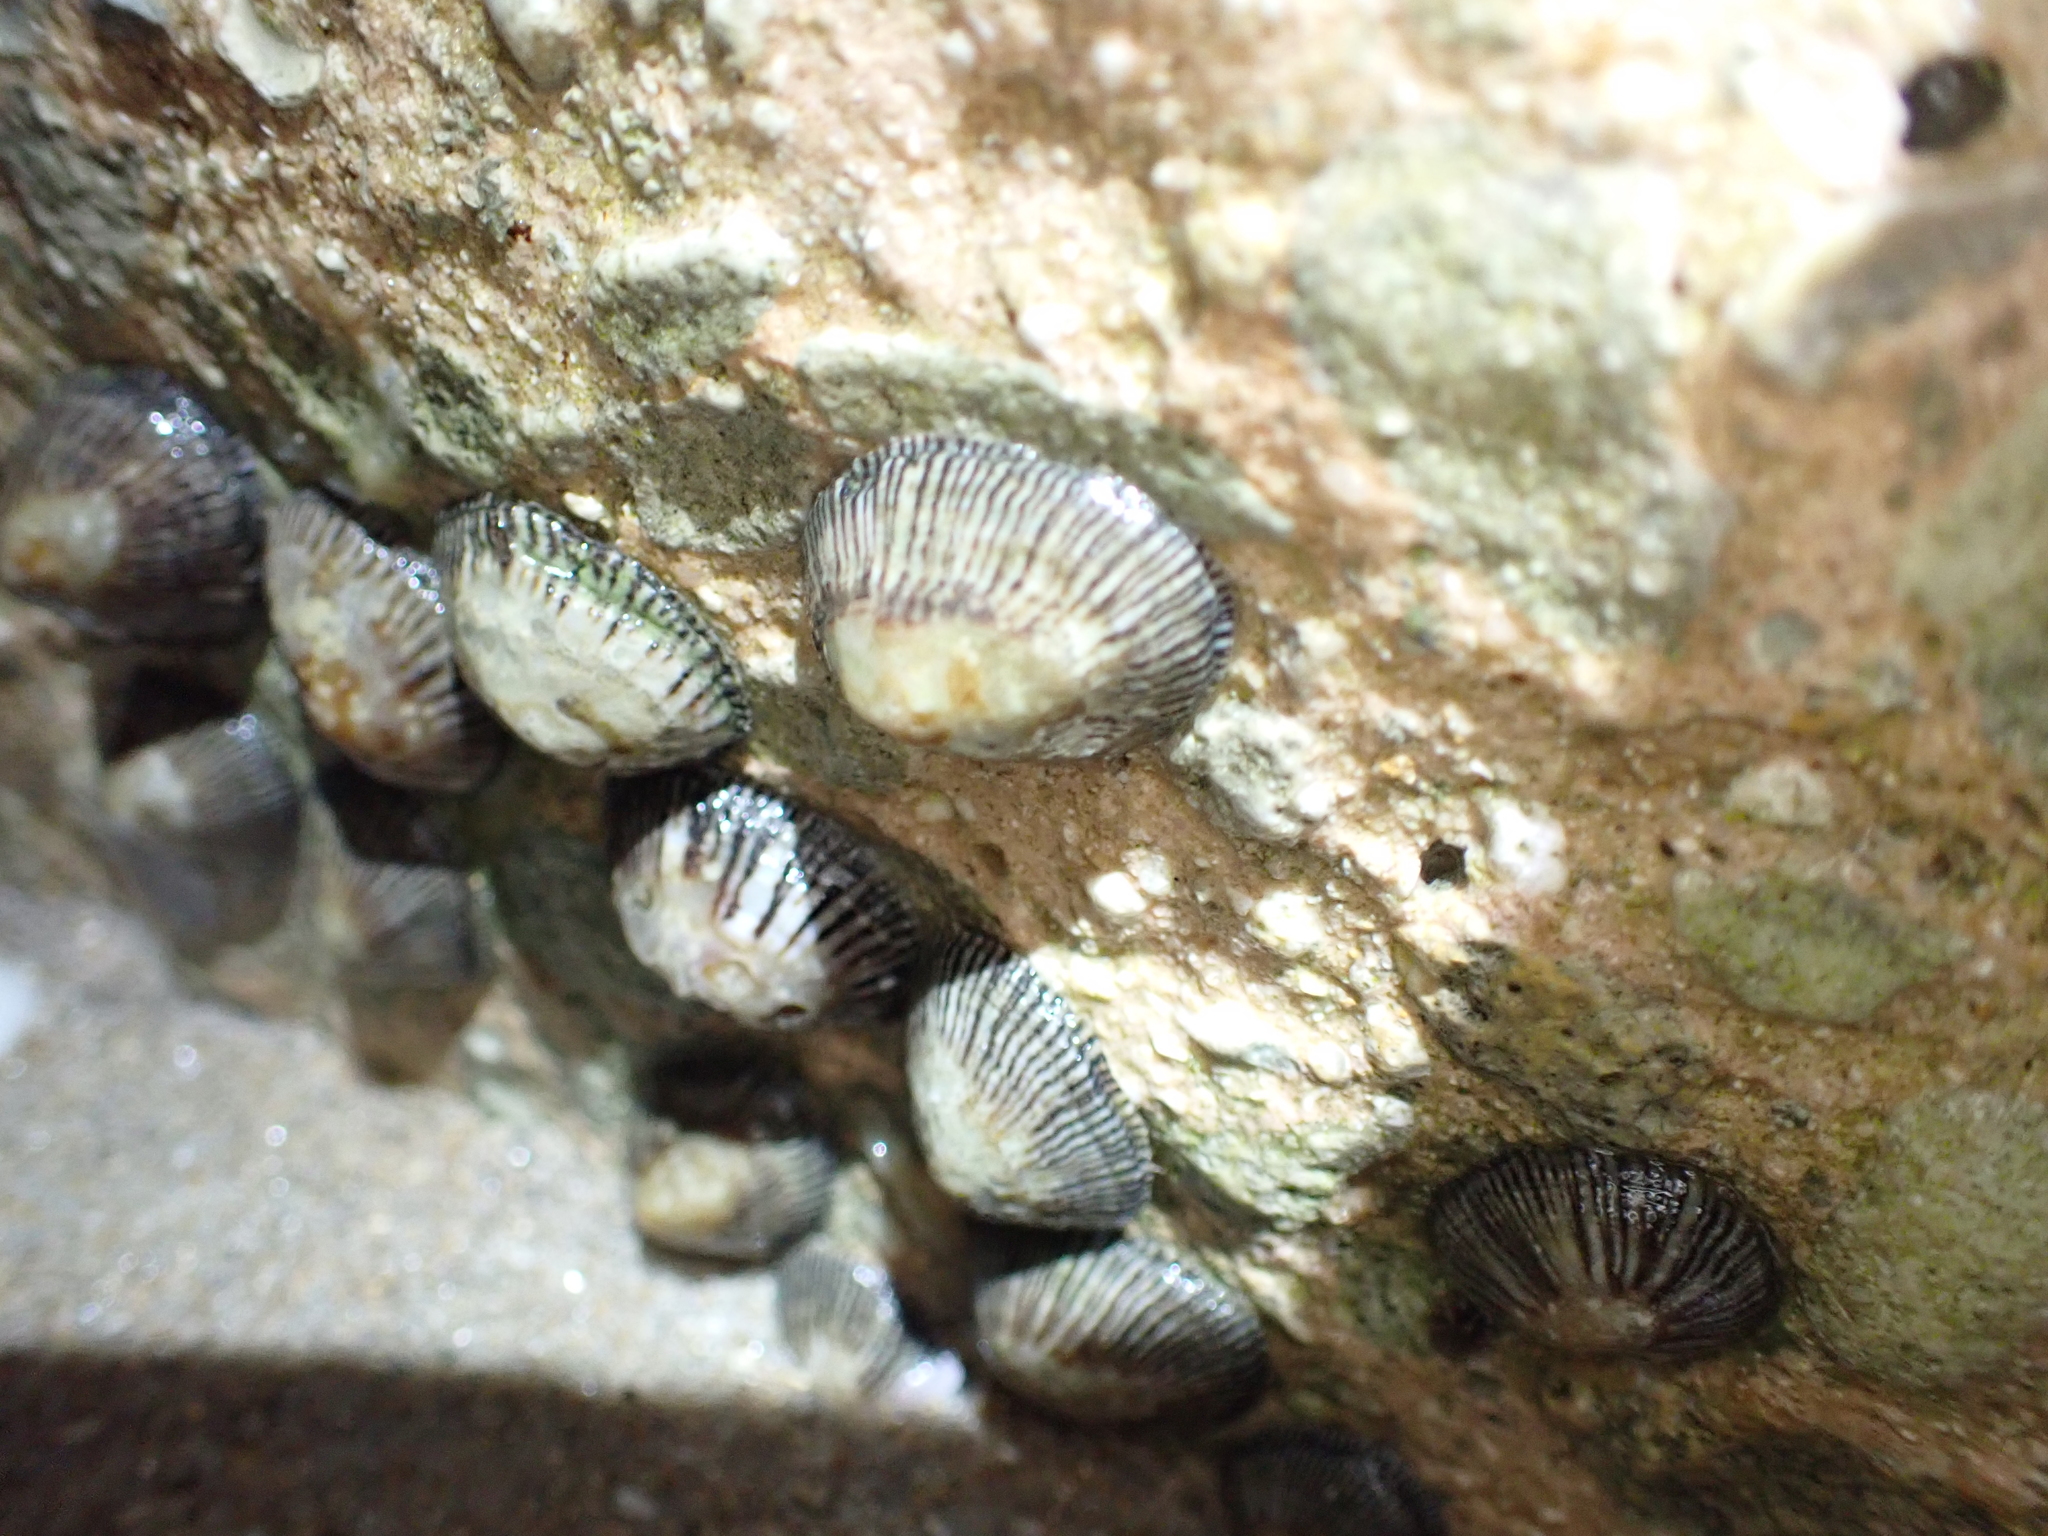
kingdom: Animalia
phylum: Mollusca
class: Gastropoda
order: Siphonariida
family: Siphonariidae
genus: Siphonaria
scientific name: Siphonaria naufragum
